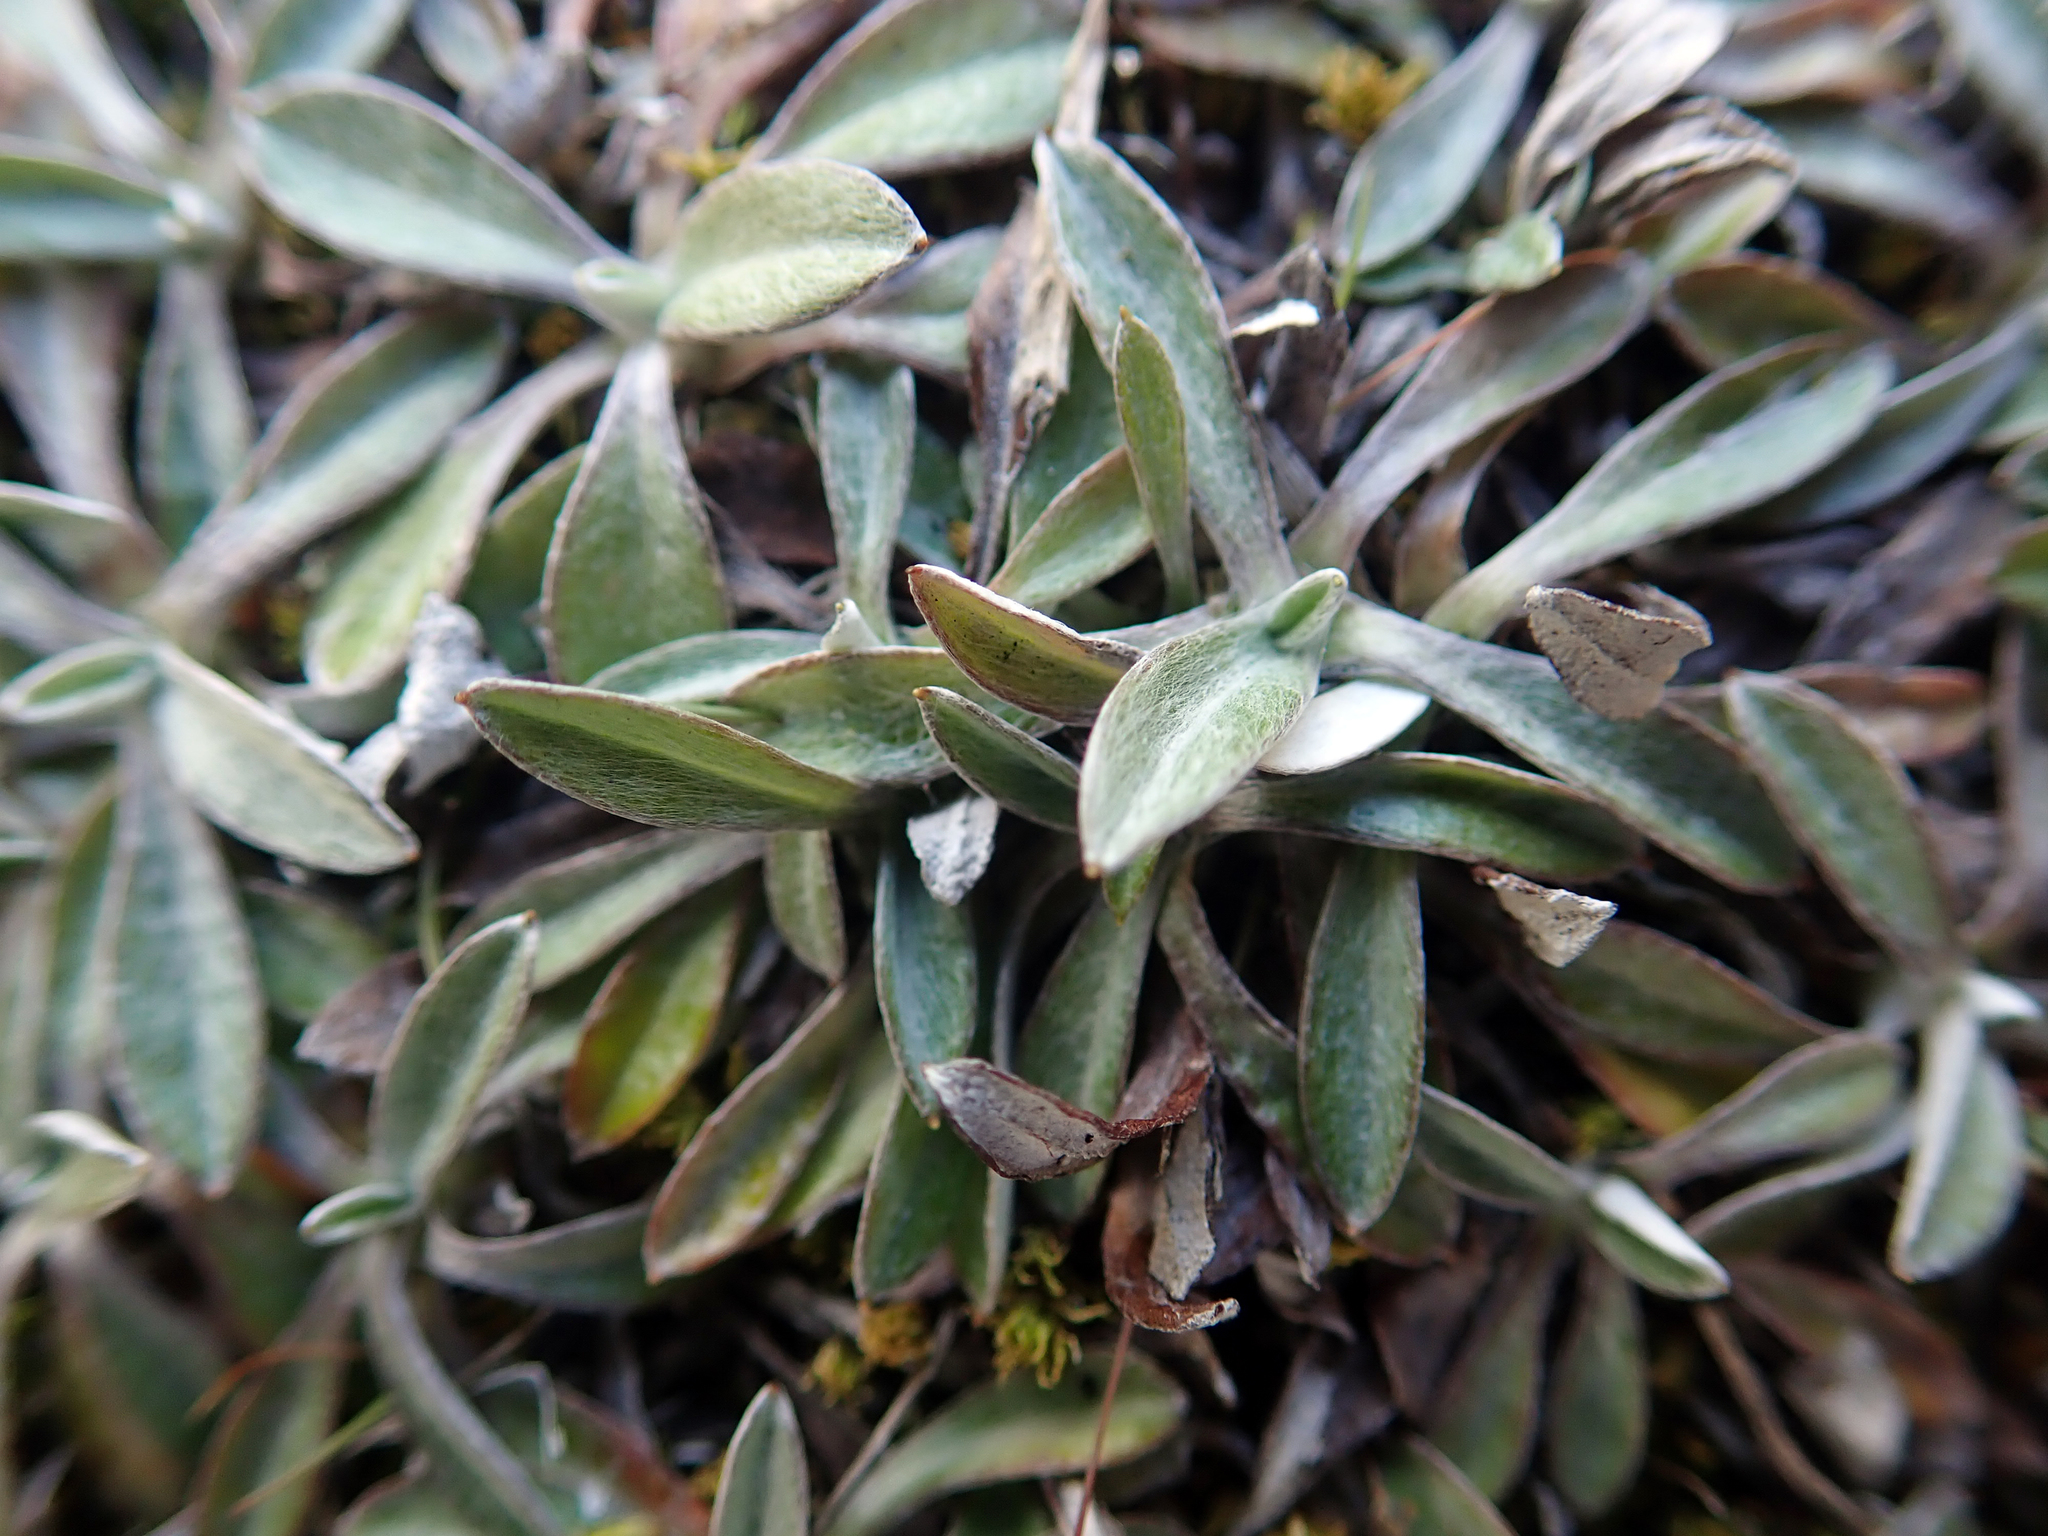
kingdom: Plantae
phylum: Tracheophyta
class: Magnoliopsida
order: Asterales
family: Asteraceae
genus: Euchiton
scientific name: Euchiton audax
